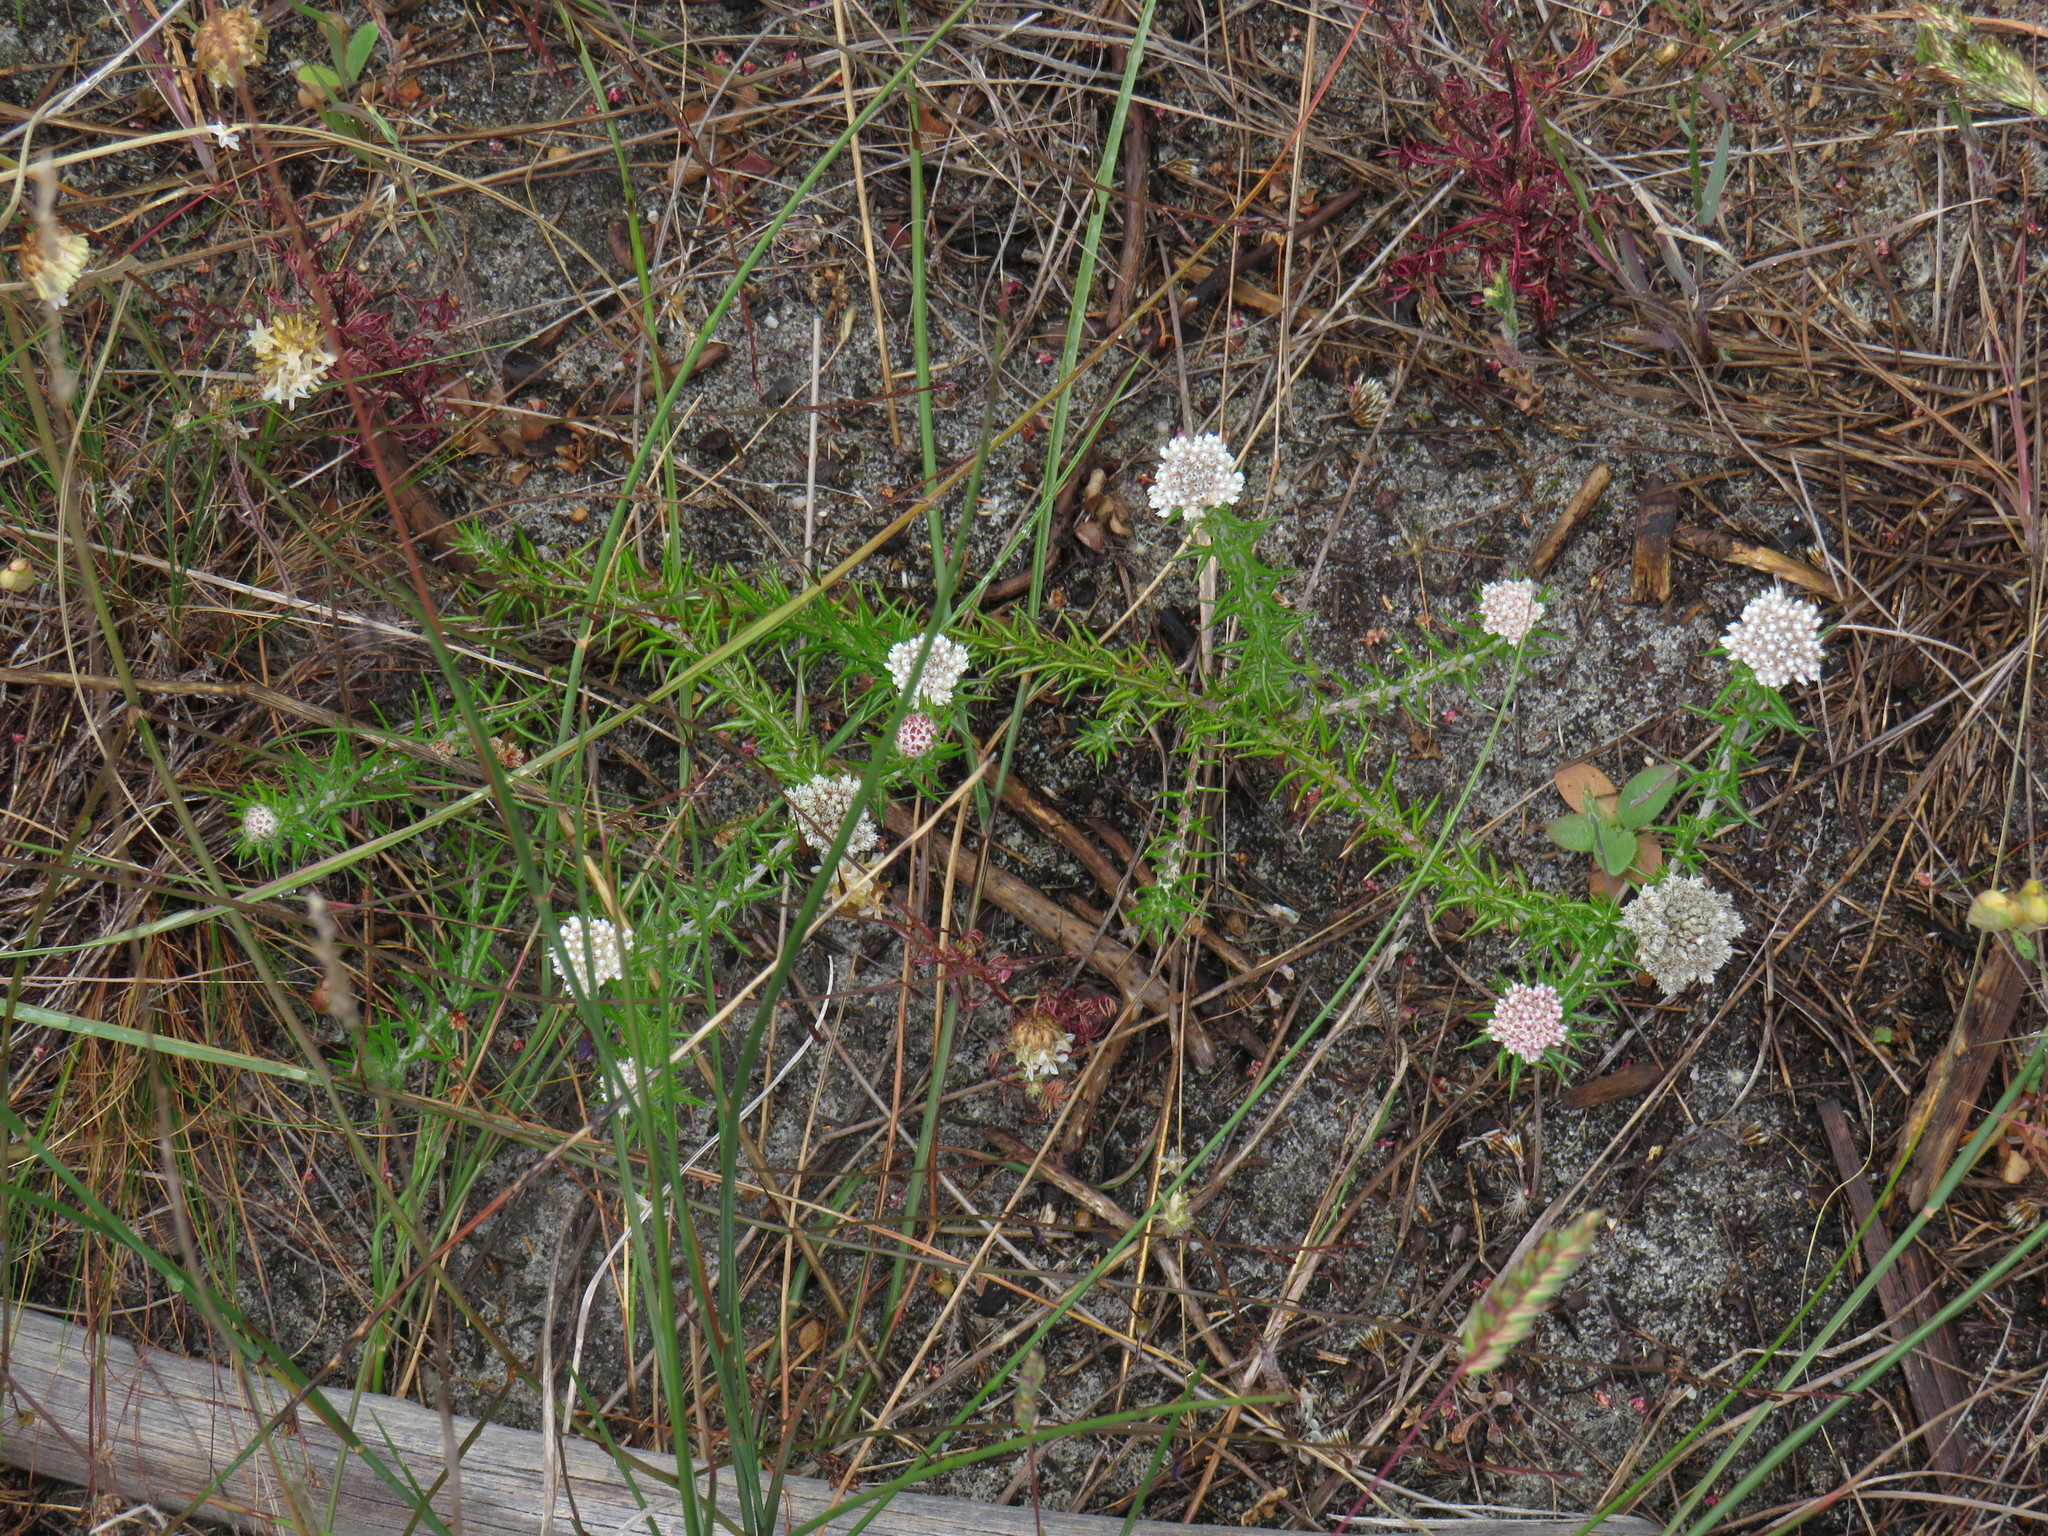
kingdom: Plantae
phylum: Tracheophyta
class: Magnoliopsida
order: Asterales
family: Asteraceae
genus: Metalasia
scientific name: Metalasia pulchella
